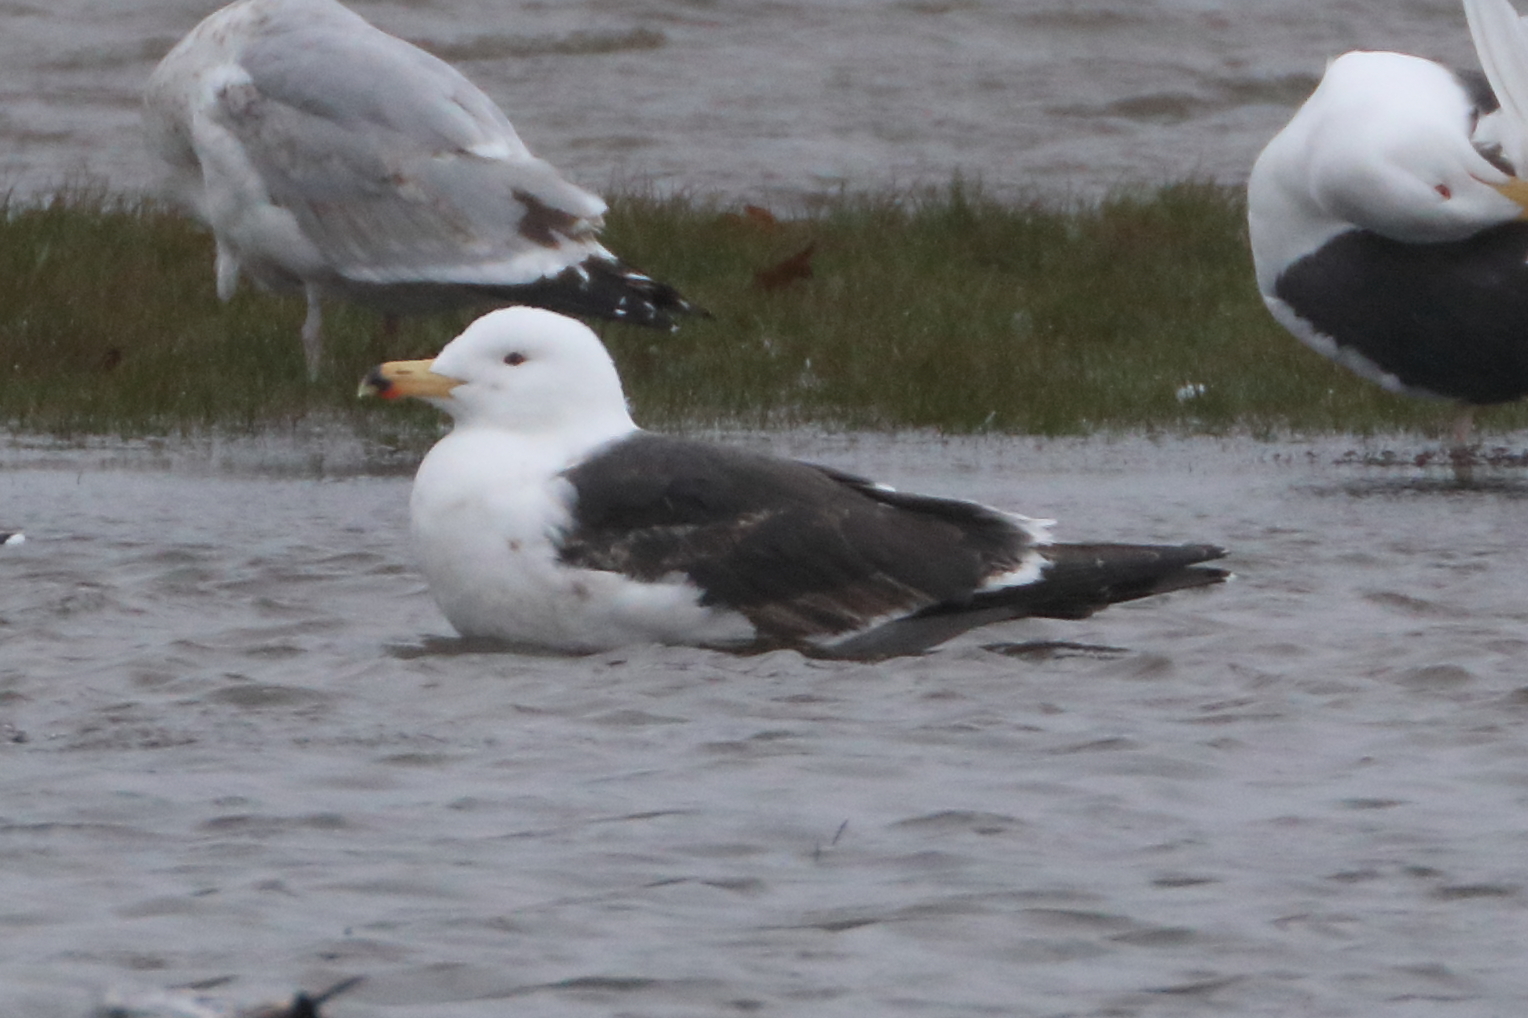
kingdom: Animalia
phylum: Chordata
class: Aves
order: Charadriiformes
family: Laridae
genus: Larus
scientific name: Larus marinus
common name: Great black-backed gull
